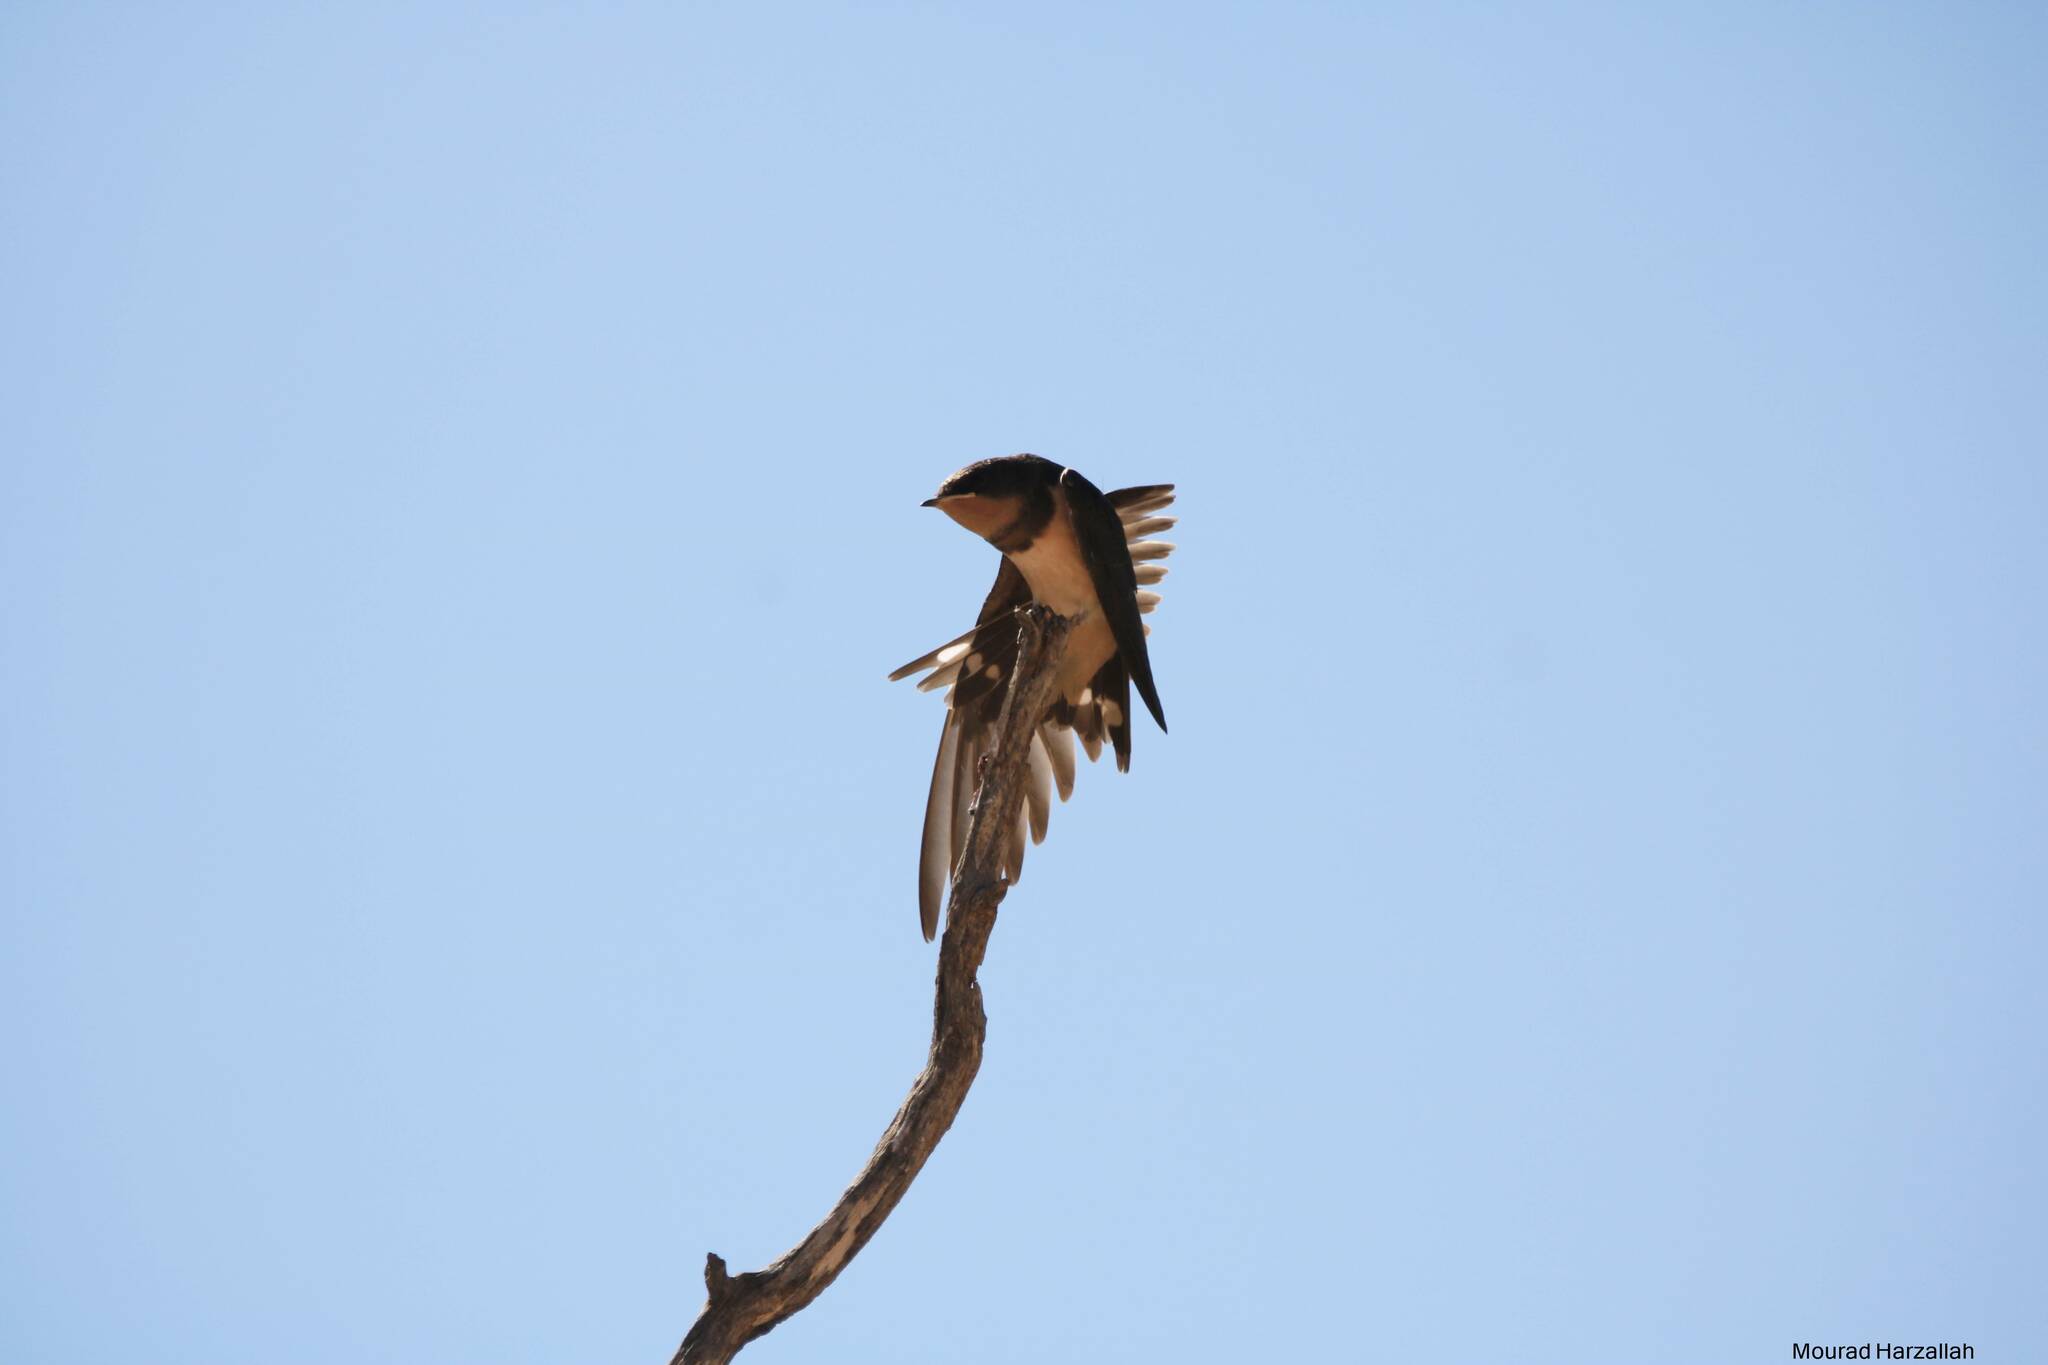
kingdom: Animalia
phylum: Chordata
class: Aves
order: Passeriformes
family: Hirundinidae
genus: Hirundo
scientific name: Hirundo rustica
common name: Barn swallow
